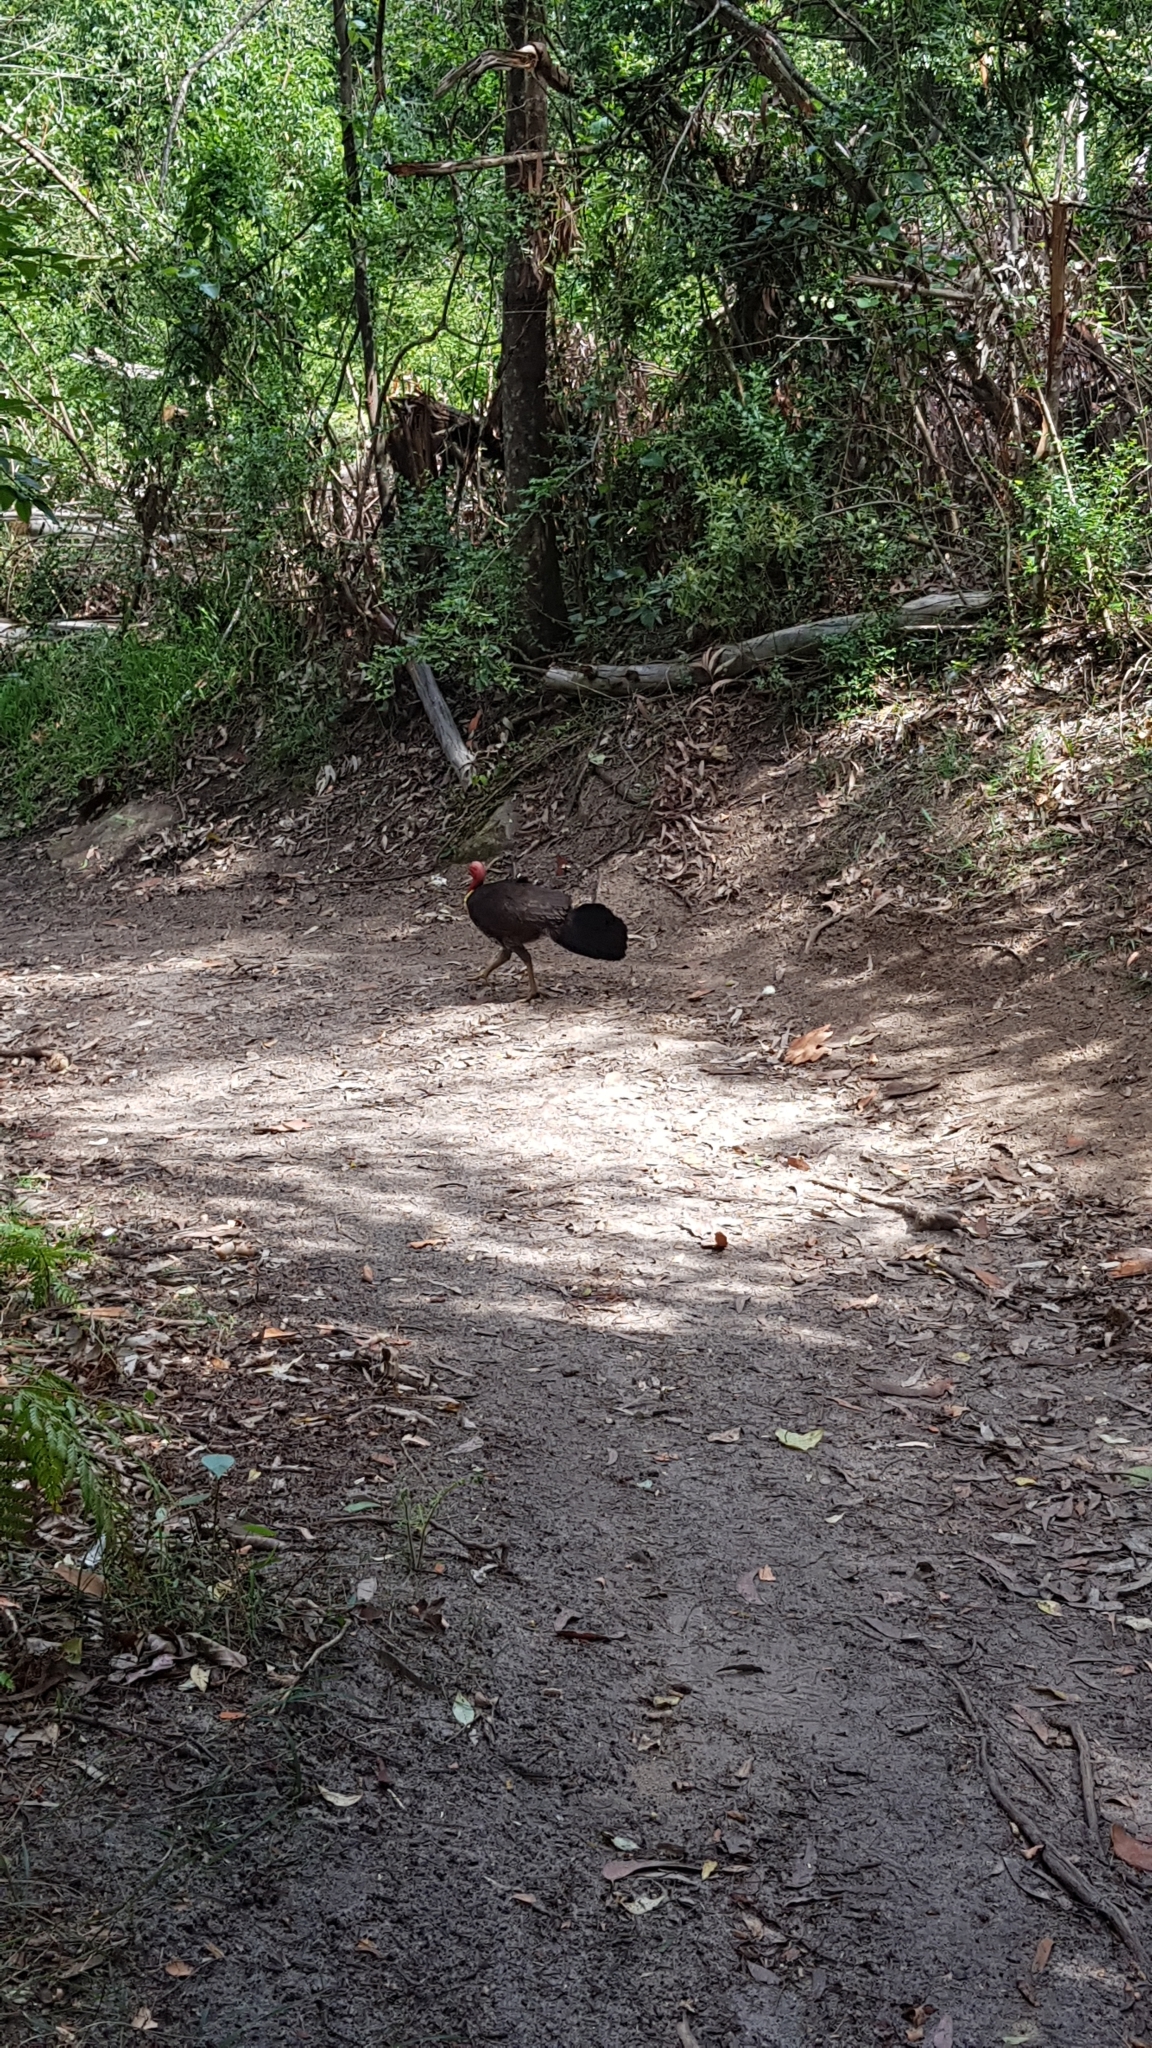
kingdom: Animalia
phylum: Chordata
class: Aves
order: Galliformes
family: Megapodiidae
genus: Alectura
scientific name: Alectura lathami
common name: Australian brushturkey
